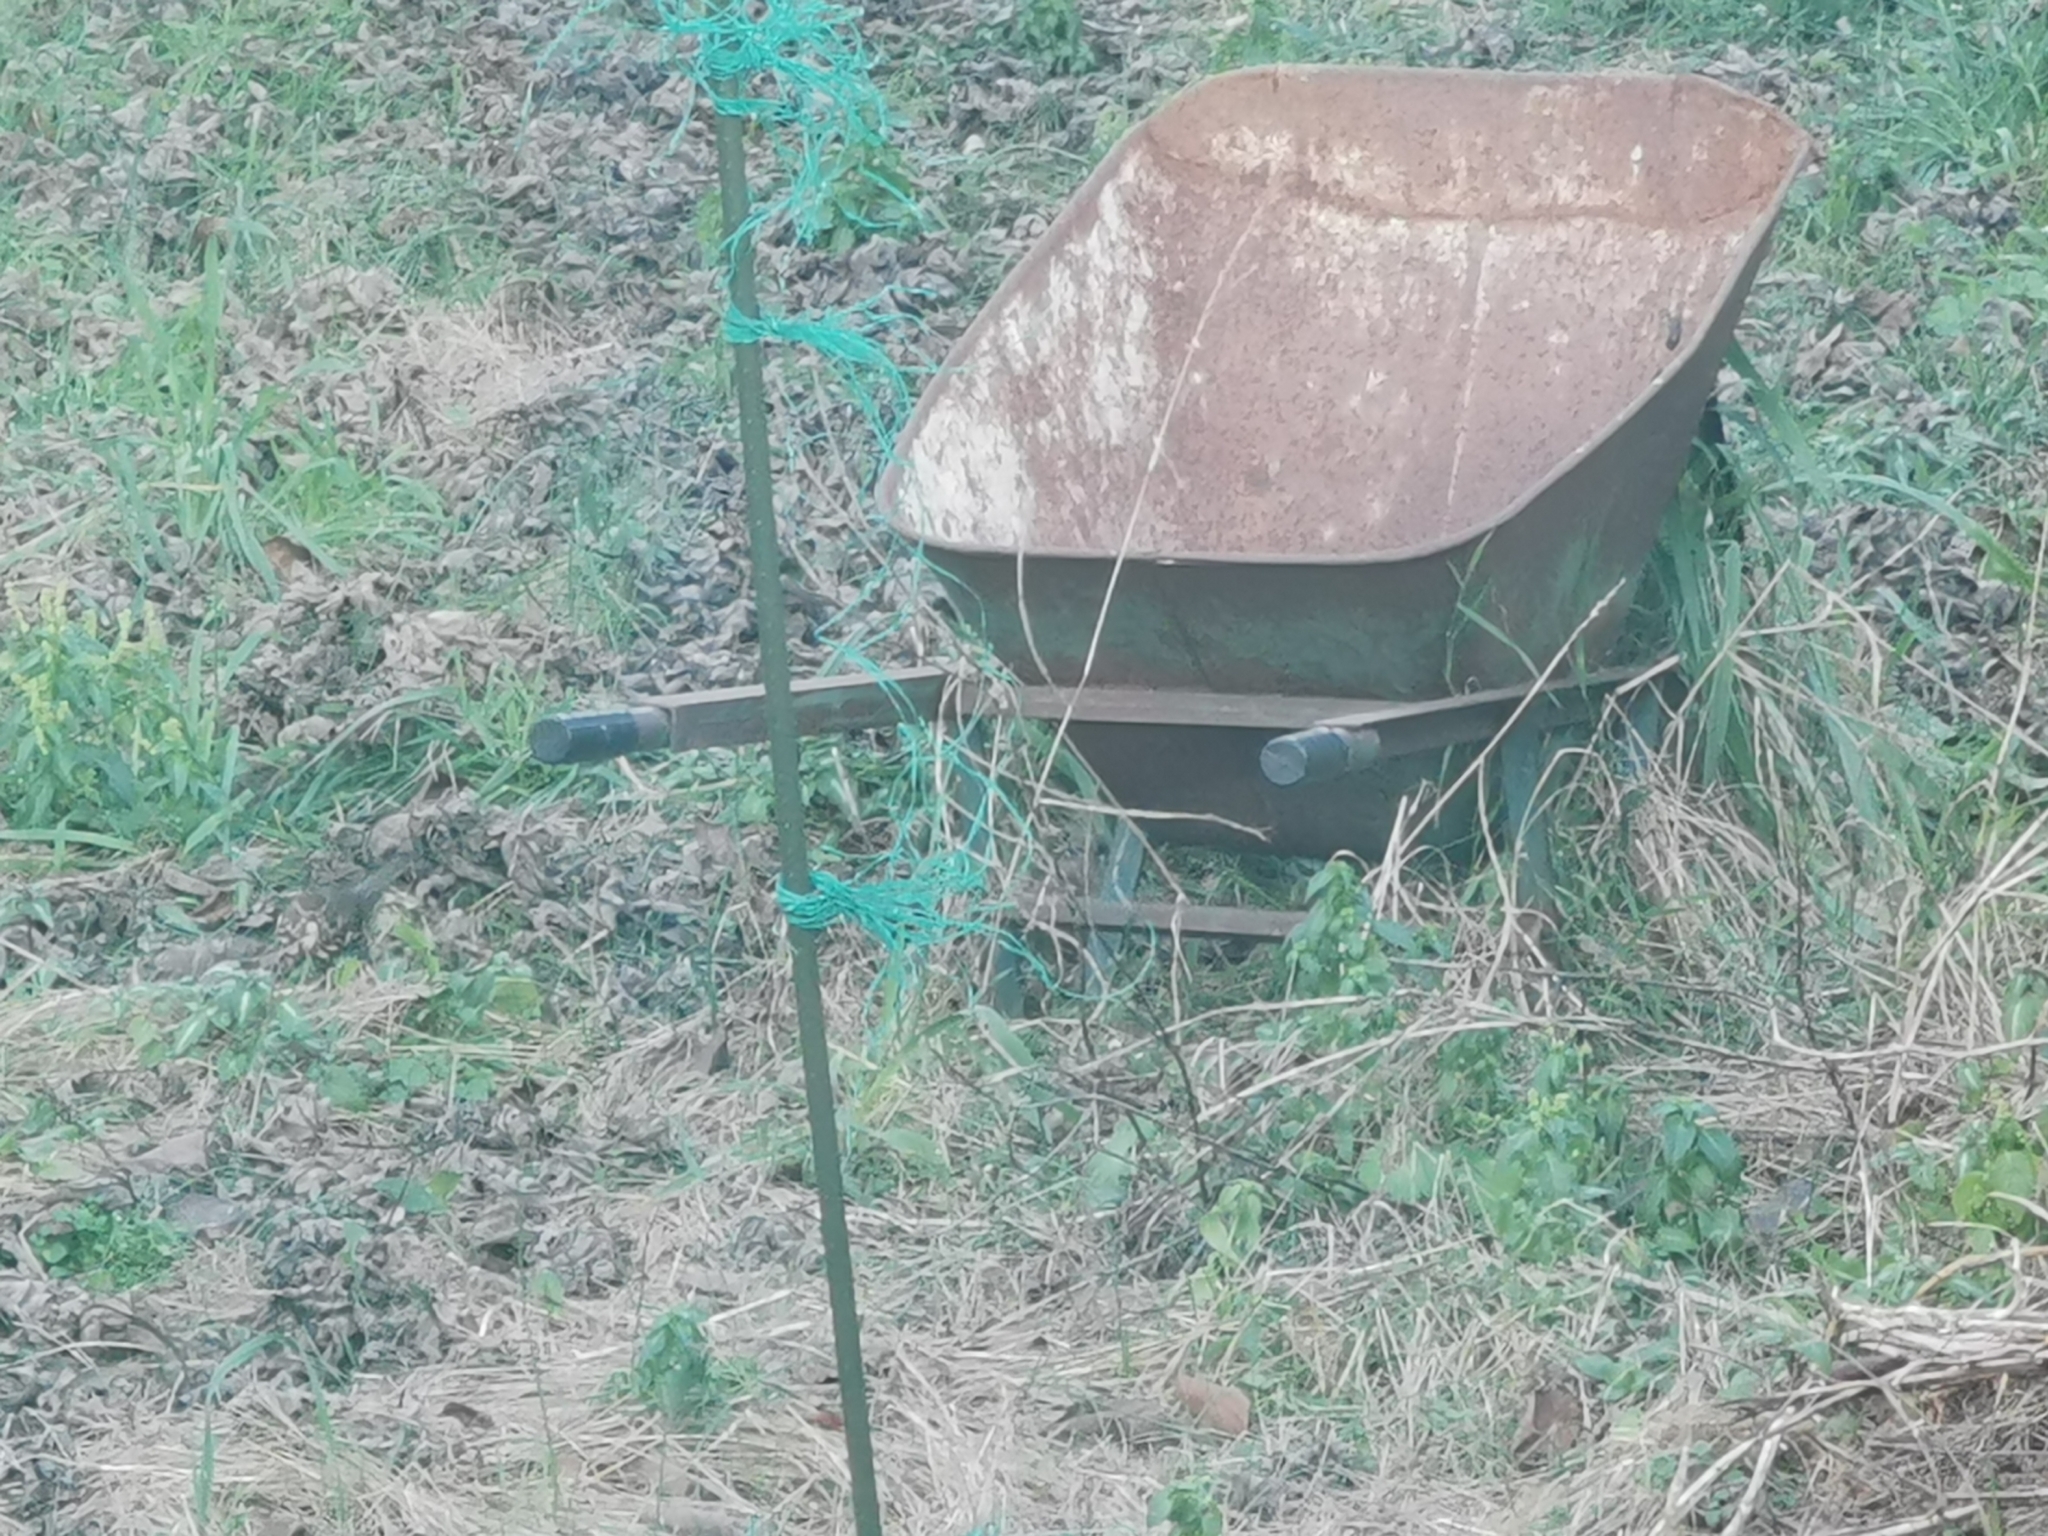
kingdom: Animalia
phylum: Chordata
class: Aves
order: Passeriformes
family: Turdidae
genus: Turdus
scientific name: Turdus philomelos
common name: Song thrush
